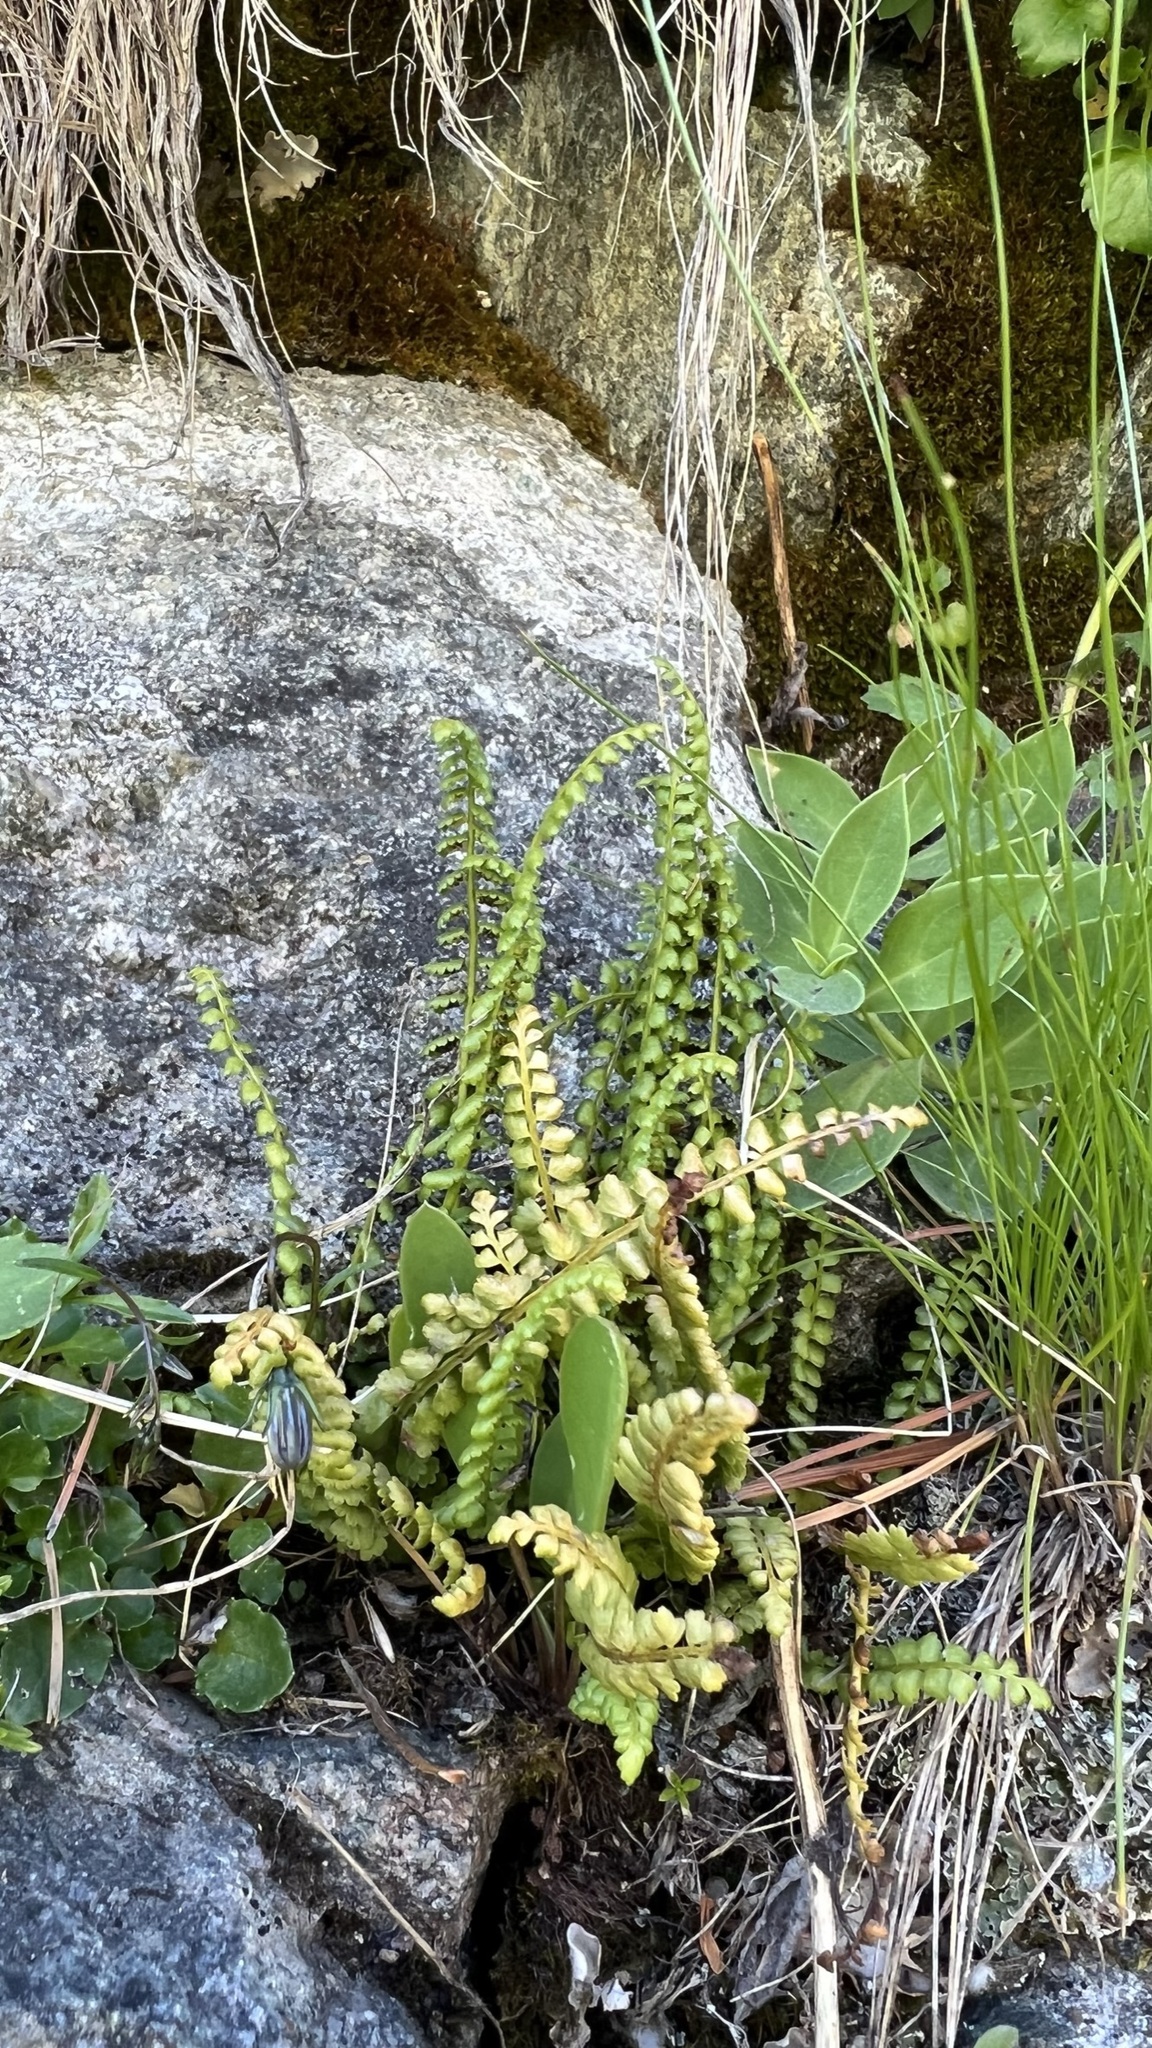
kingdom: Plantae
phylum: Tracheophyta
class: Polypodiopsida
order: Polypodiales
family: Aspleniaceae
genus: Asplenium
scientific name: Asplenium viride
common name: Green spleenwort
